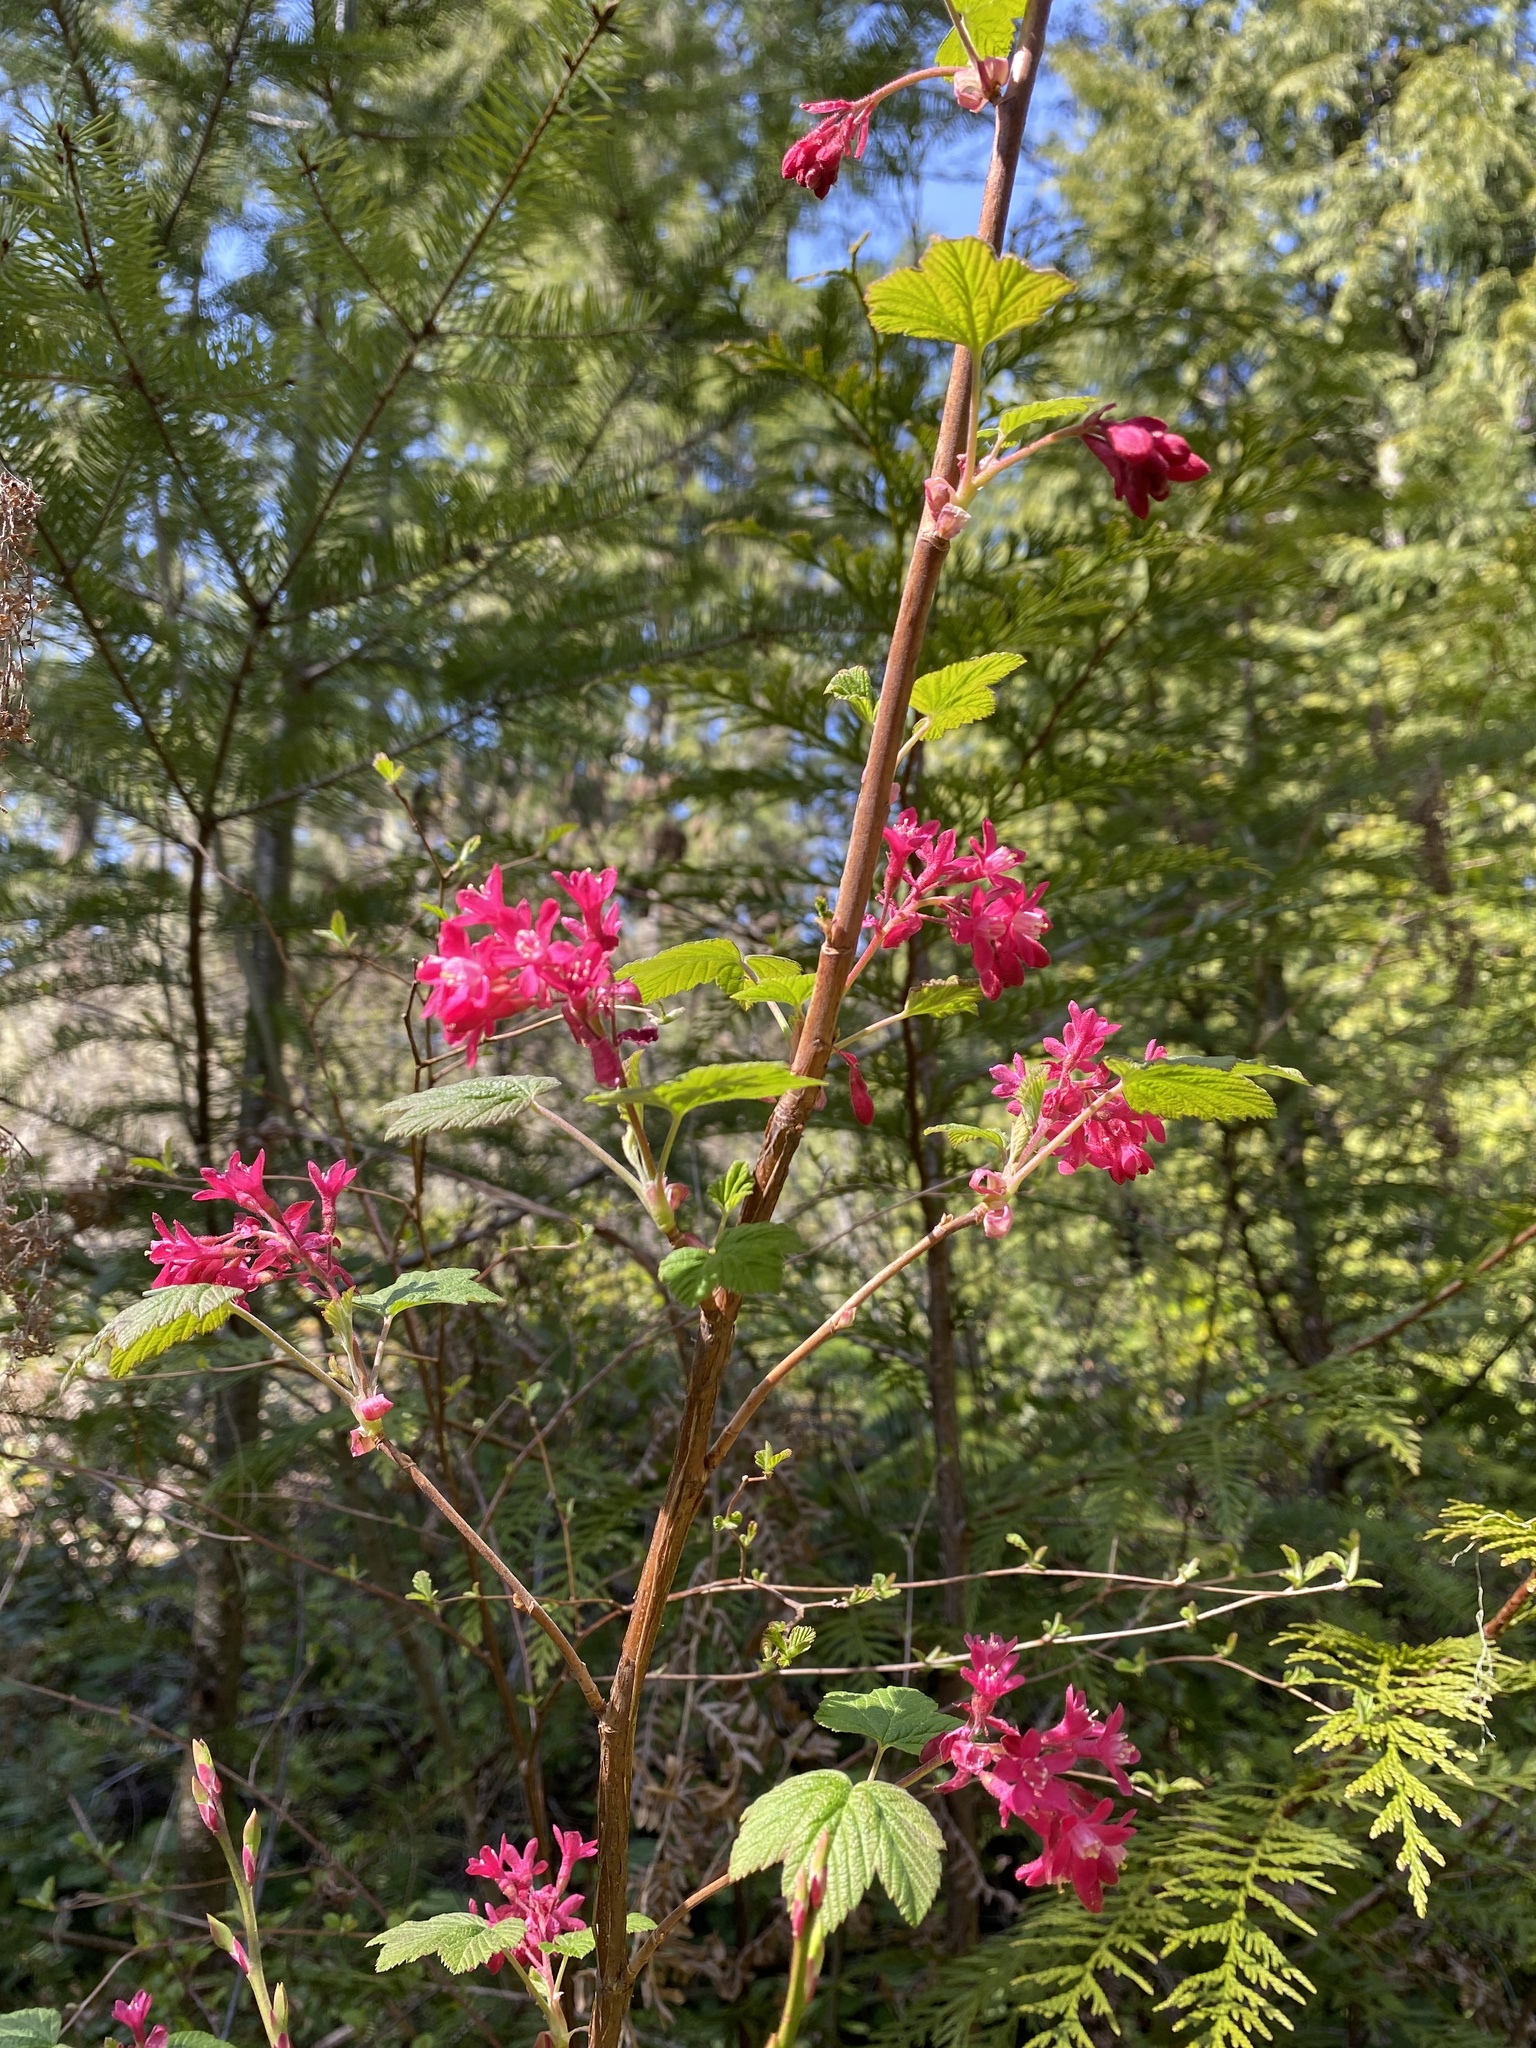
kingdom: Plantae
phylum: Tracheophyta
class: Magnoliopsida
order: Saxifragales
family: Grossulariaceae
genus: Ribes
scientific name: Ribes sanguineum
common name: Flowering currant
